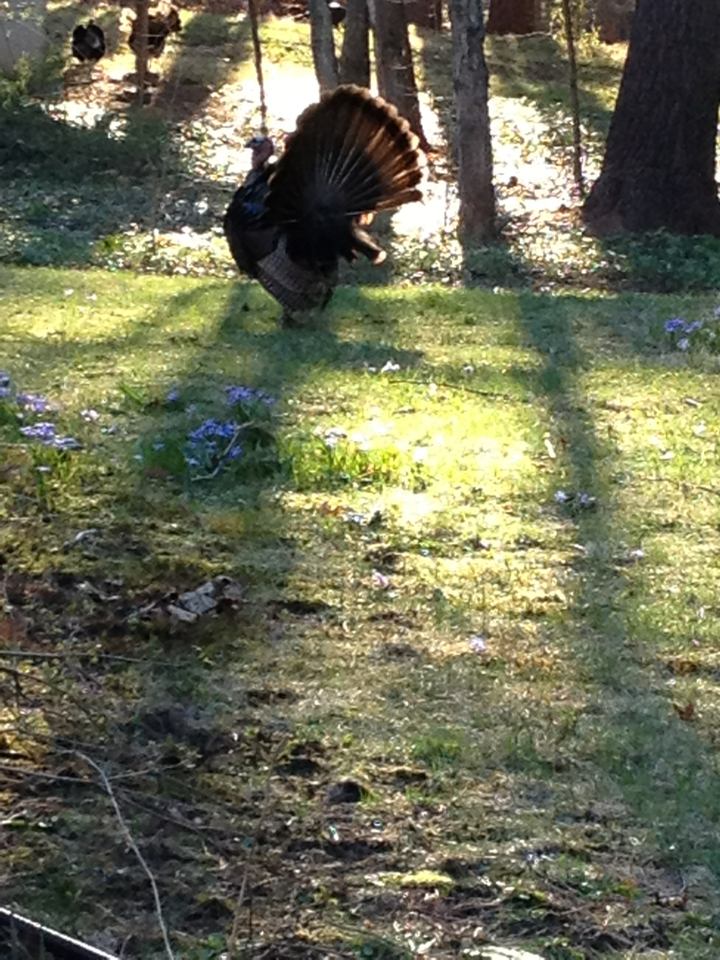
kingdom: Animalia
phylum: Chordata
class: Aves
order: Galliformes
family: Phasianidae
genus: Meleagris
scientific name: Meleagris gallopavo
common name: Wild turkey
